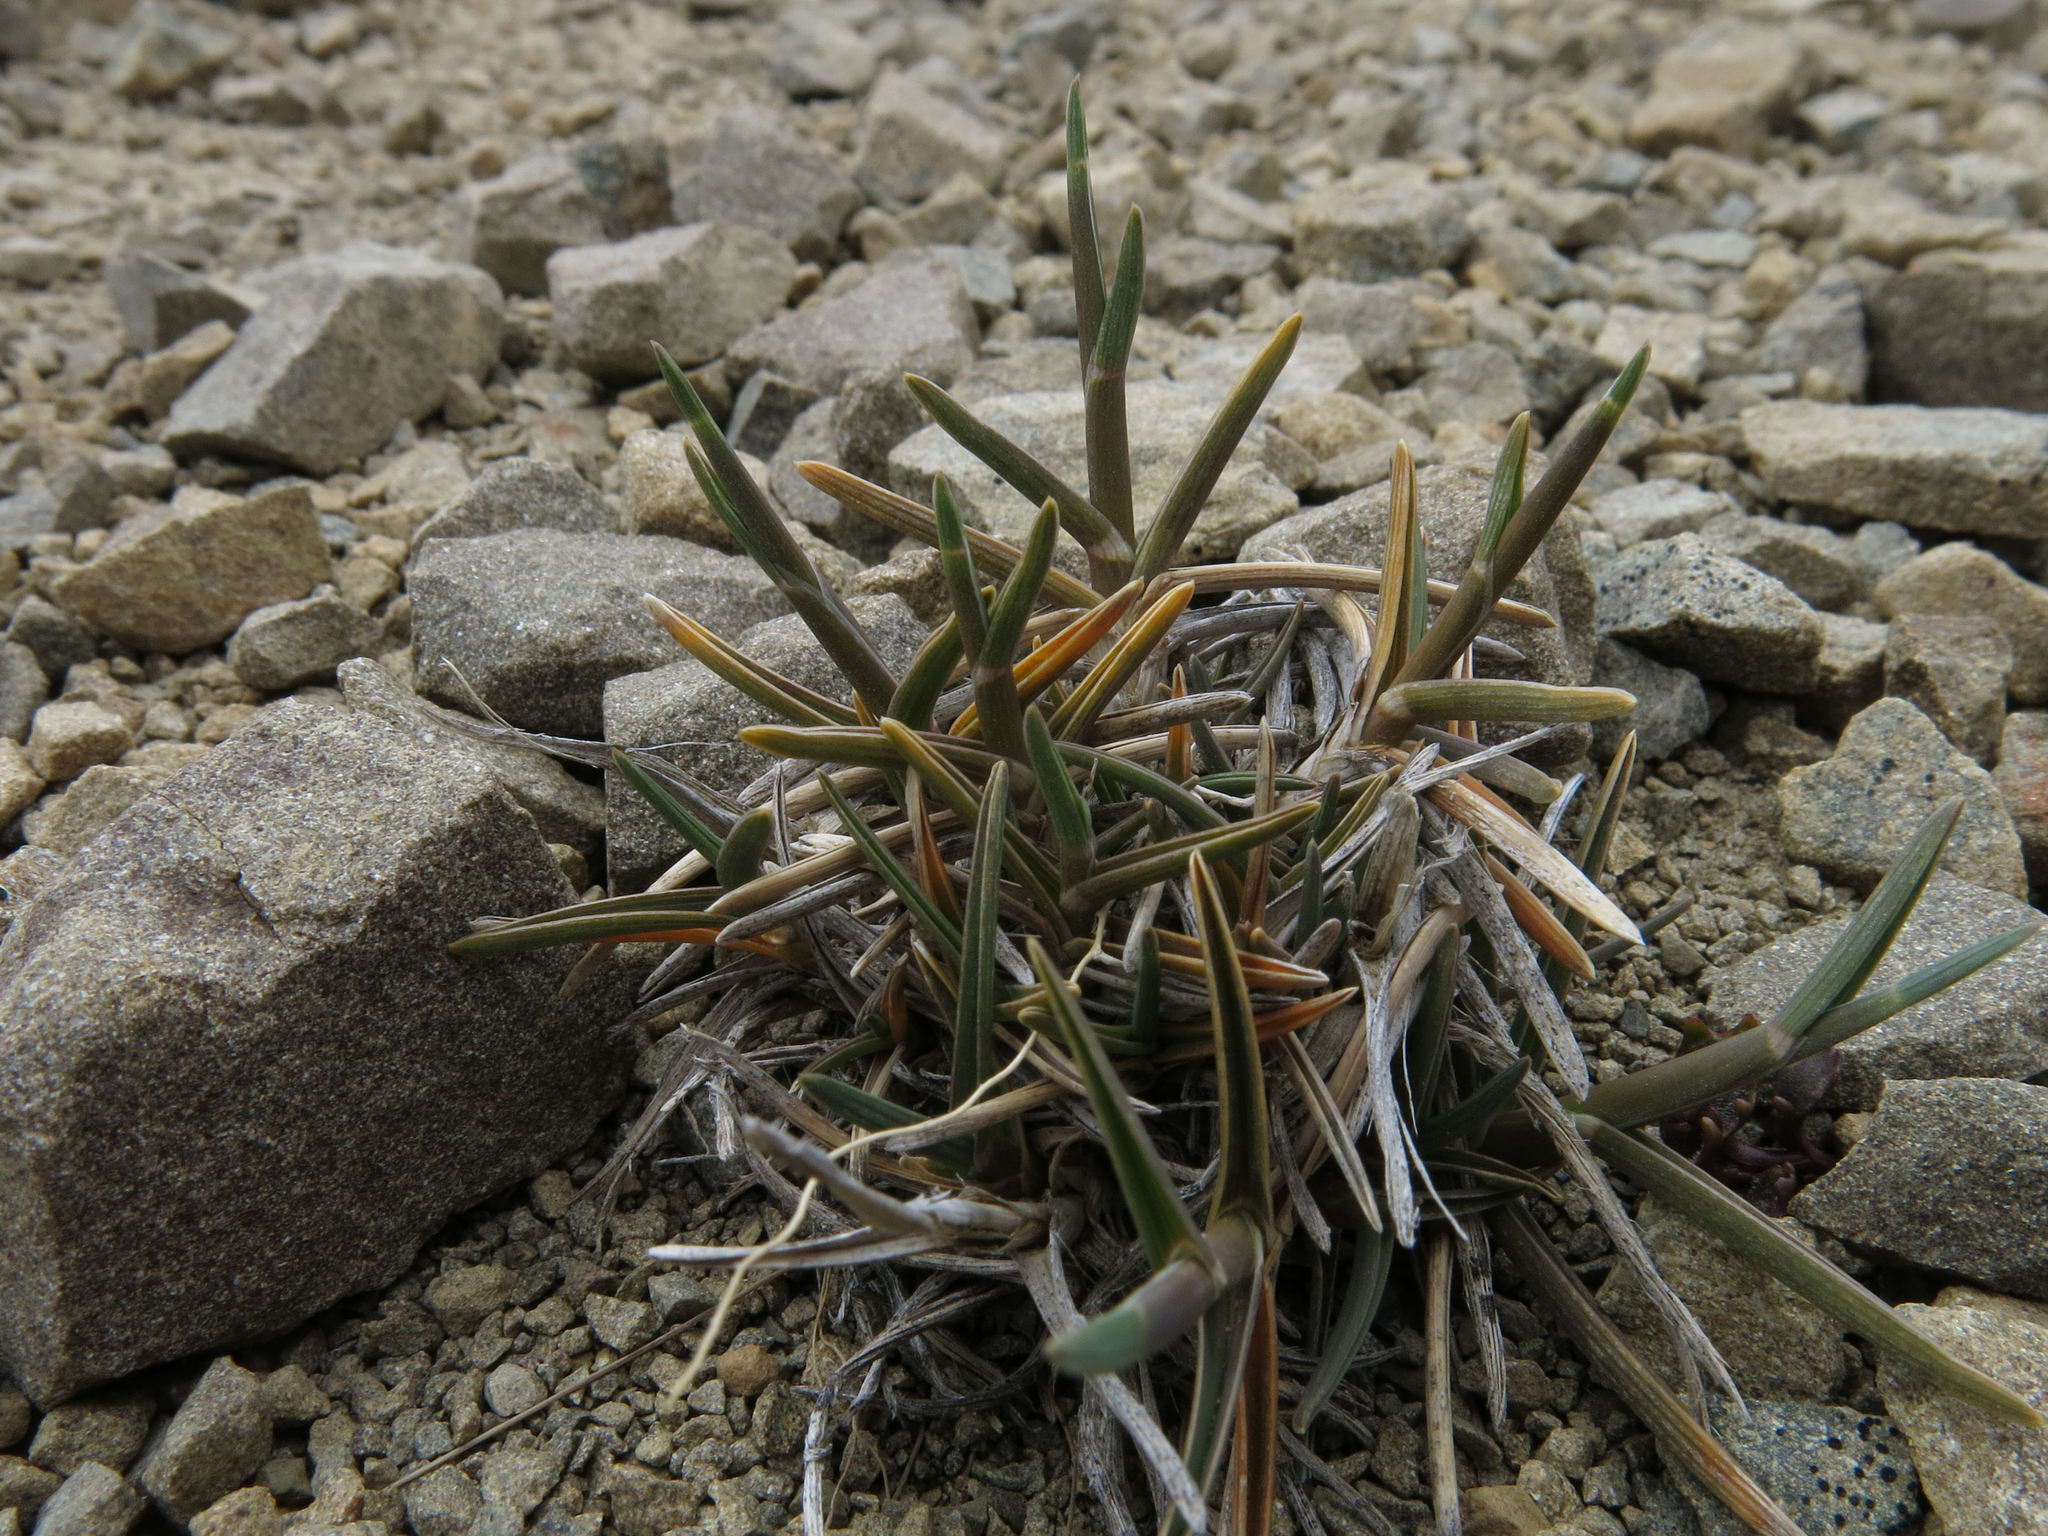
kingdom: Plantae
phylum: Tracheophyta
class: Liliopsida
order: Poales
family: Poaceae
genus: Poa
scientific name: Poa buchananii
